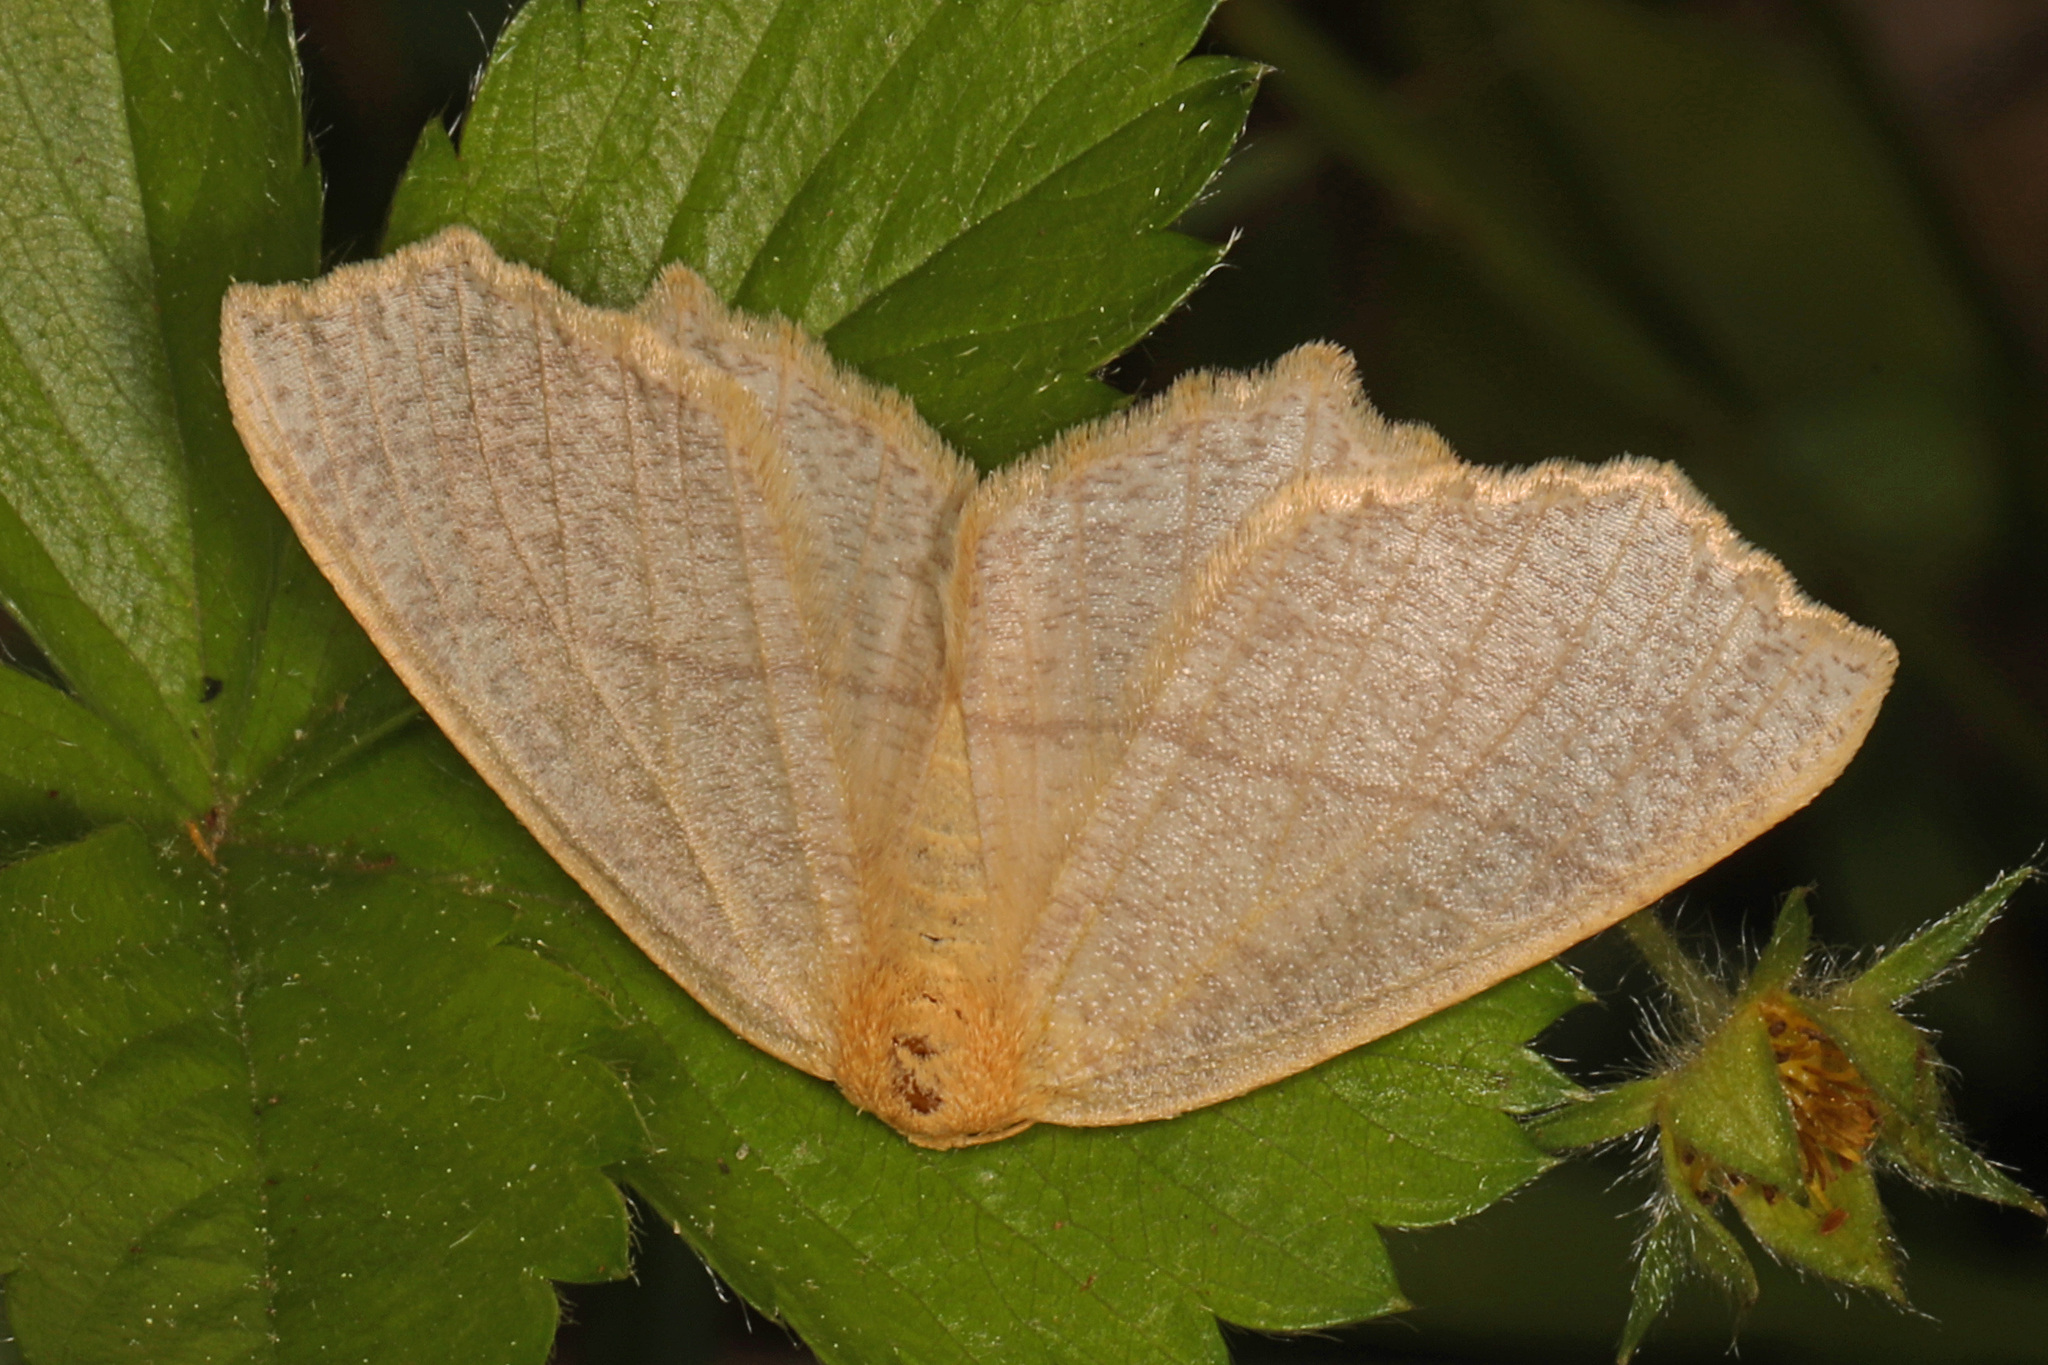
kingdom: Animalia
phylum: Arthropoda
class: Insecta
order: Lepidoptera
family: Geometridae
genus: Besma
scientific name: Besma endropiaria
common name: Straw besma
